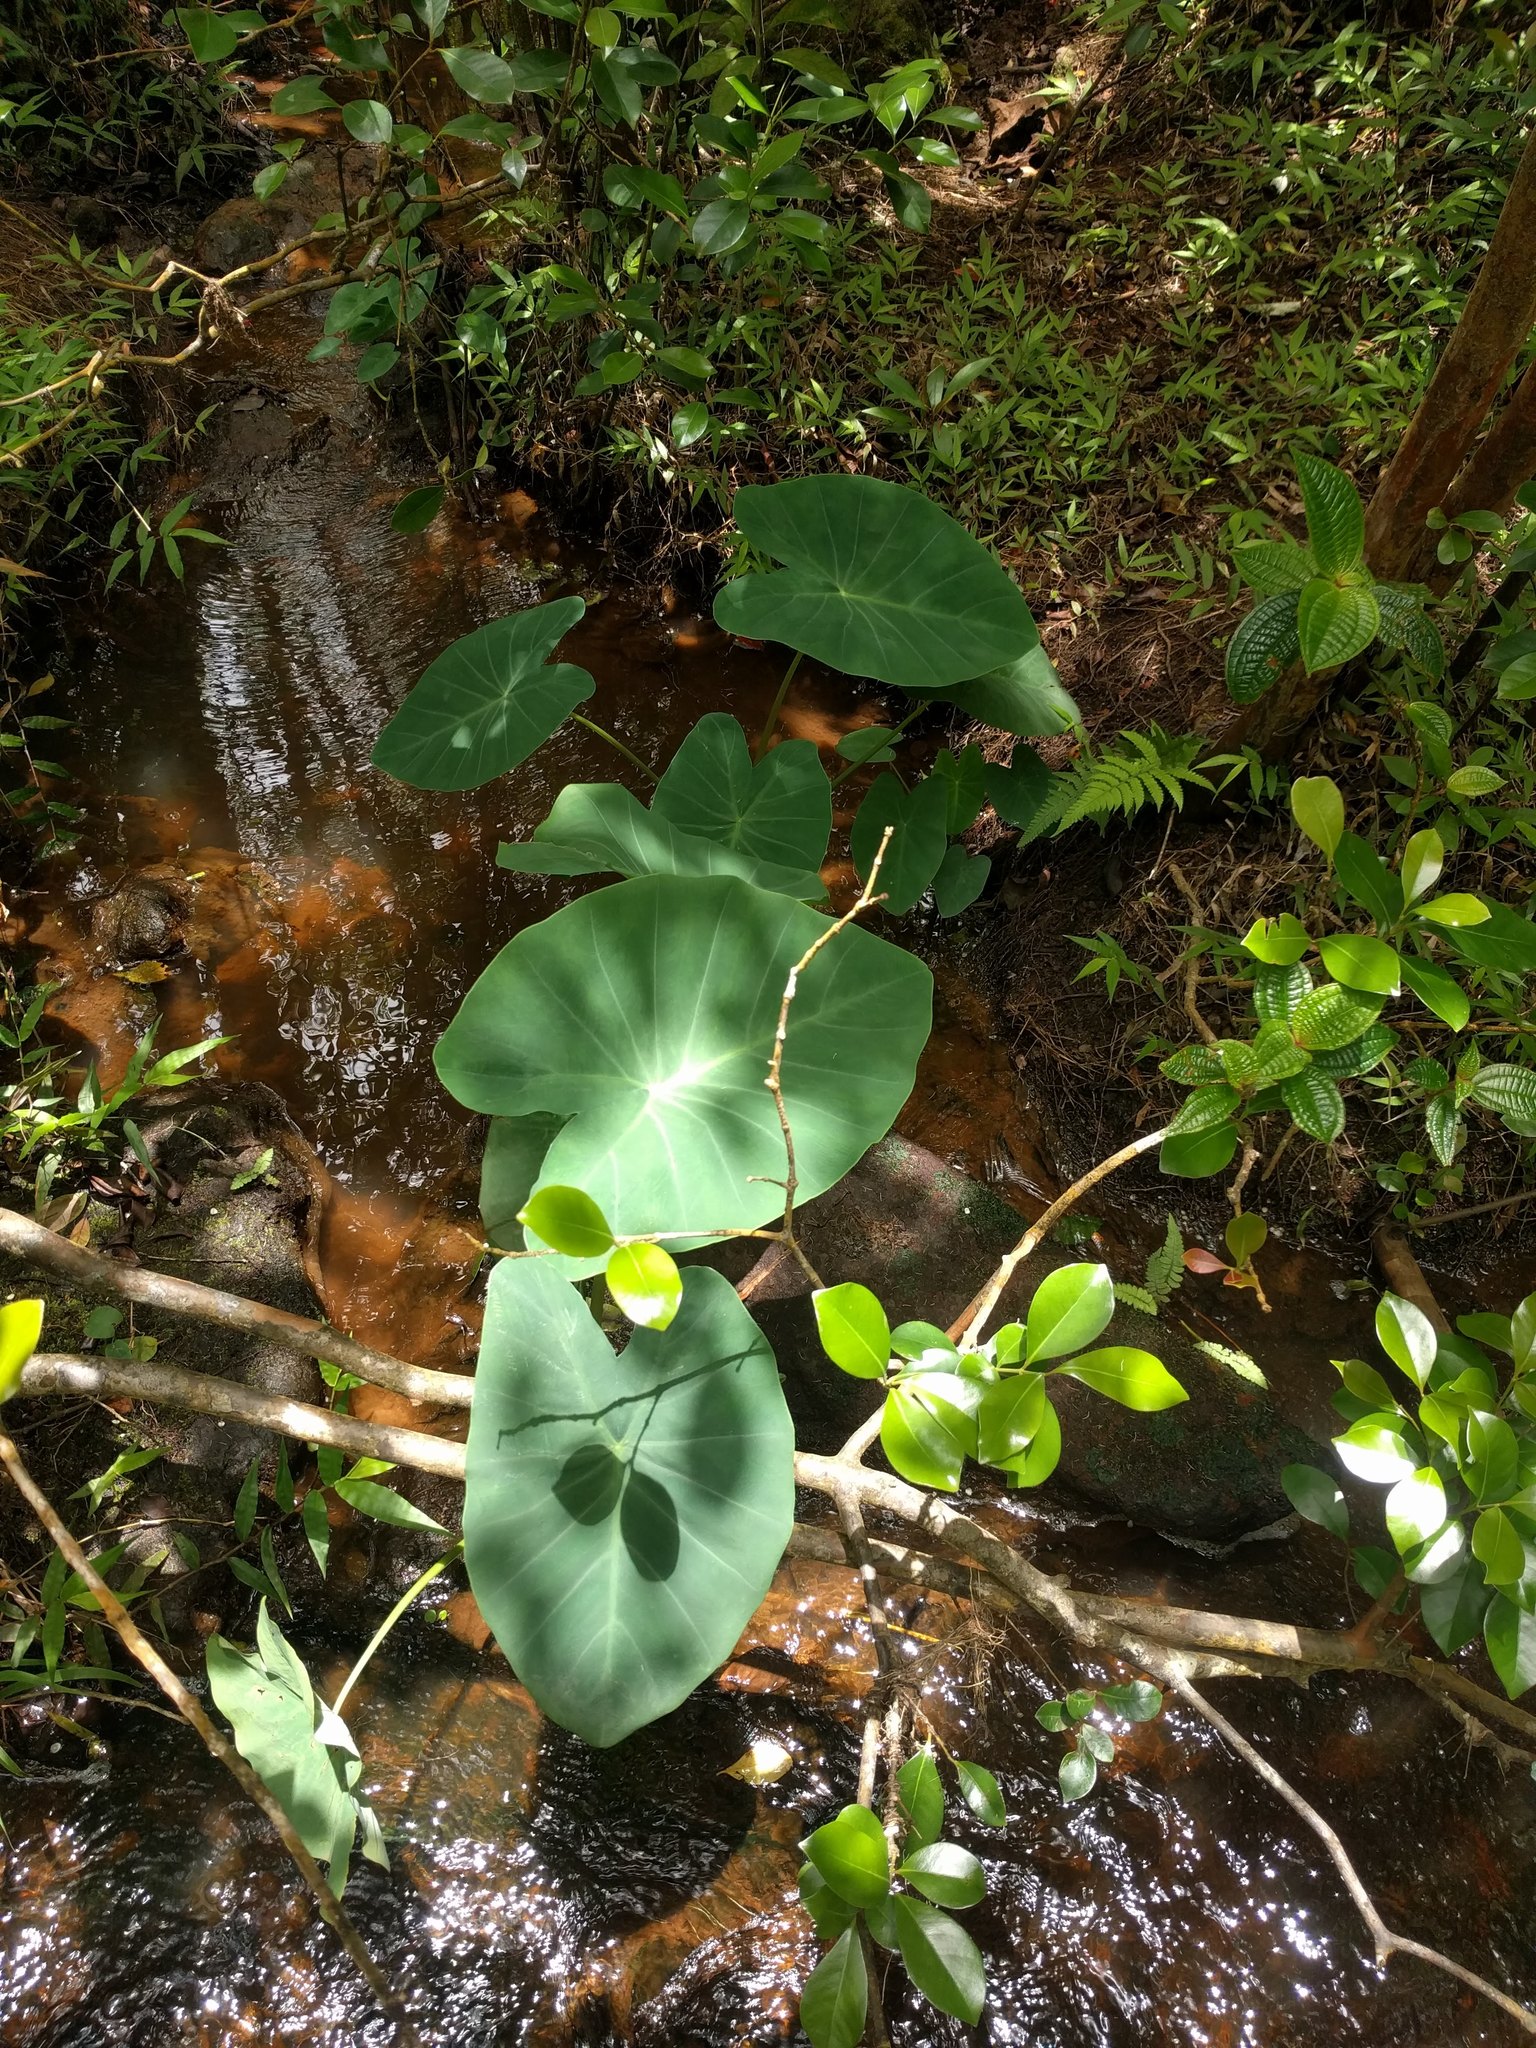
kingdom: Plantae
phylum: Tracheophyta
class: Liliopsida
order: Alismatales
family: Araceae
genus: Colocasia
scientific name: Colocasia esculenta
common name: Taro
